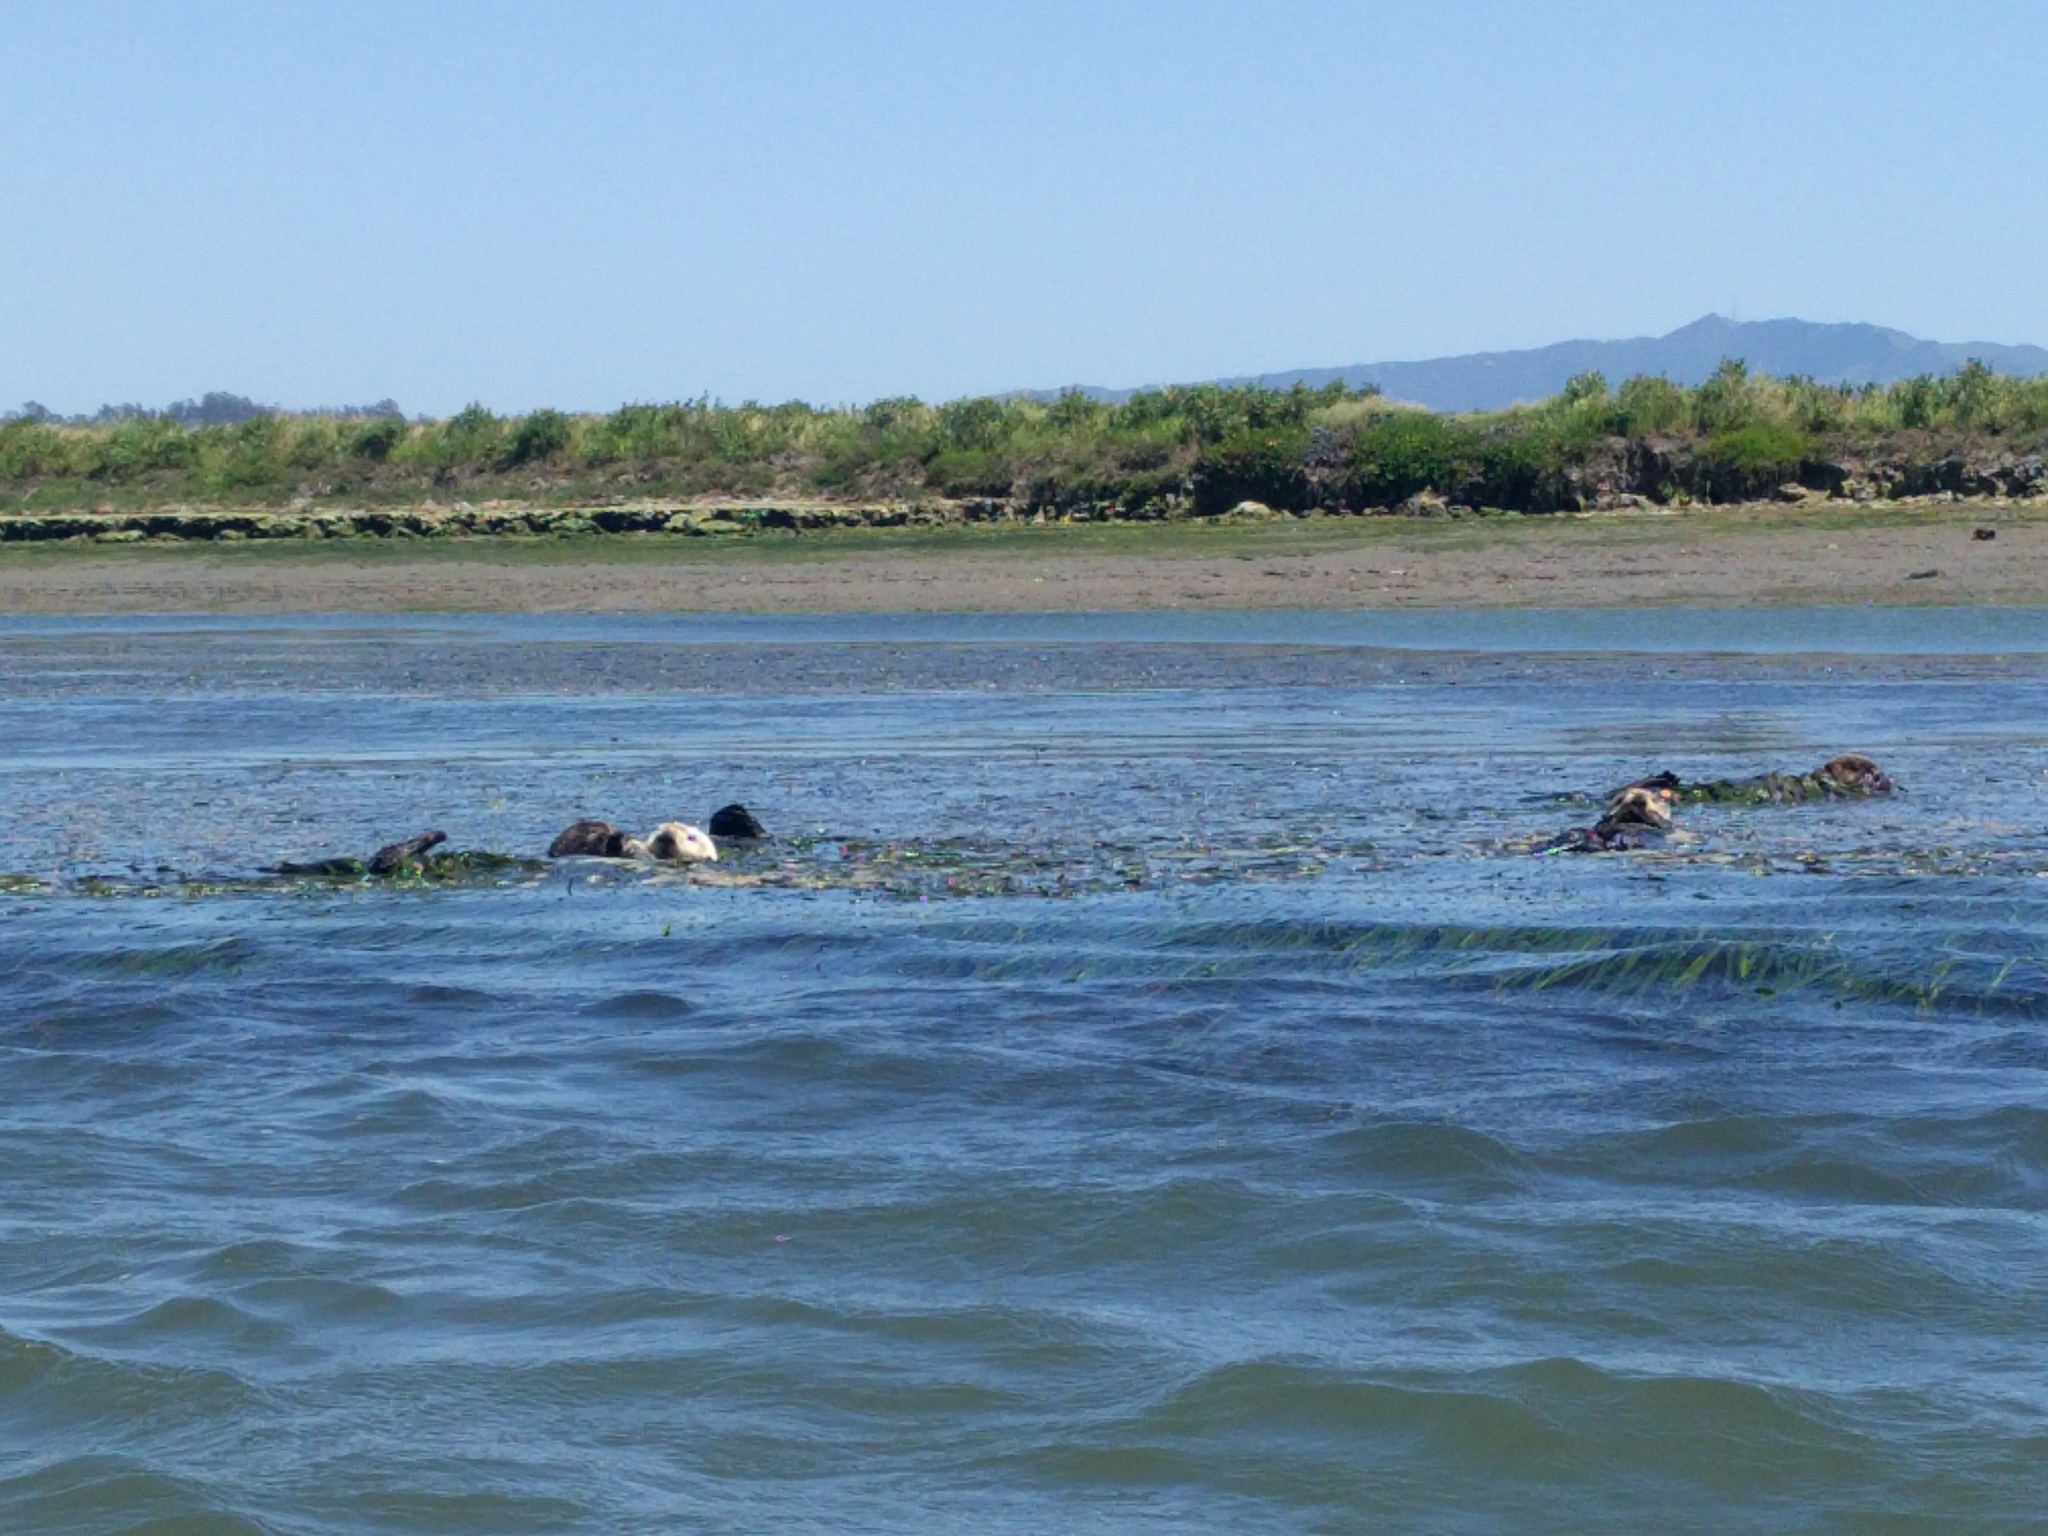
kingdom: Animalia
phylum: Chordata
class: Mammalia
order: Carnivora
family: Mustelidae
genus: Enhydra
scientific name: Enhydra lutris
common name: Sea otter
